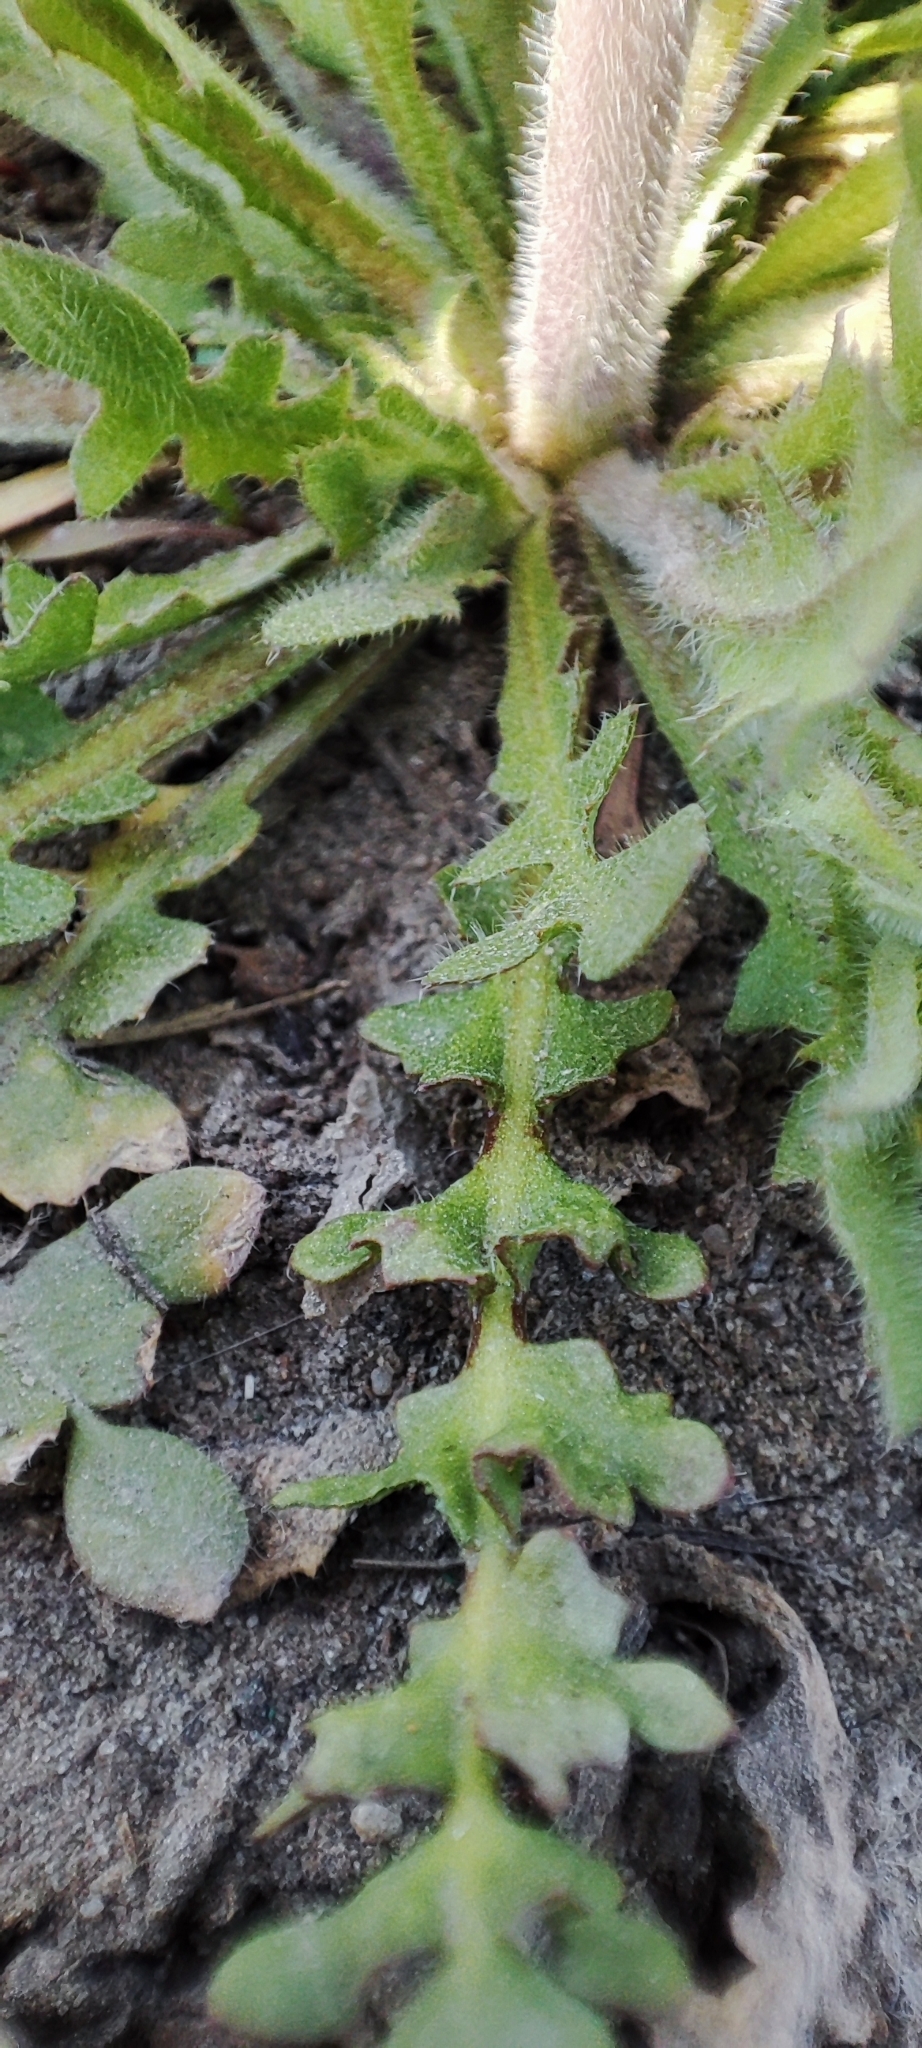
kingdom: Plantae
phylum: Tracheophyta
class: Magnoliopsida
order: Brassicales
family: Brassicaceae
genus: Capsella
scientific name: Capsella orientalis
